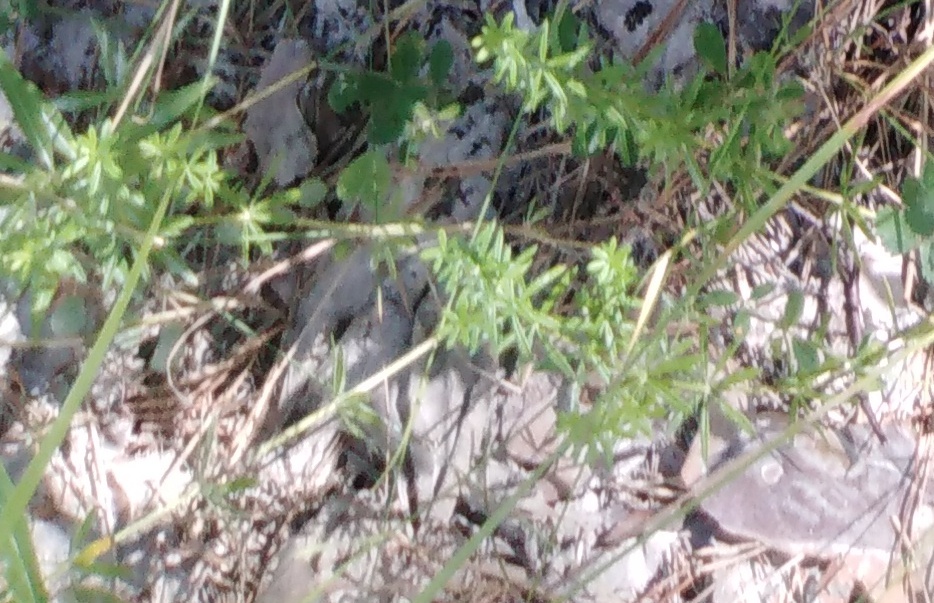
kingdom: Plantae
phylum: Tracheophyta
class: Magnoliopsida
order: Gentianales
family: Rubiaceae
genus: Galium
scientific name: Galium mollugo
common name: Hedge bedstraw
